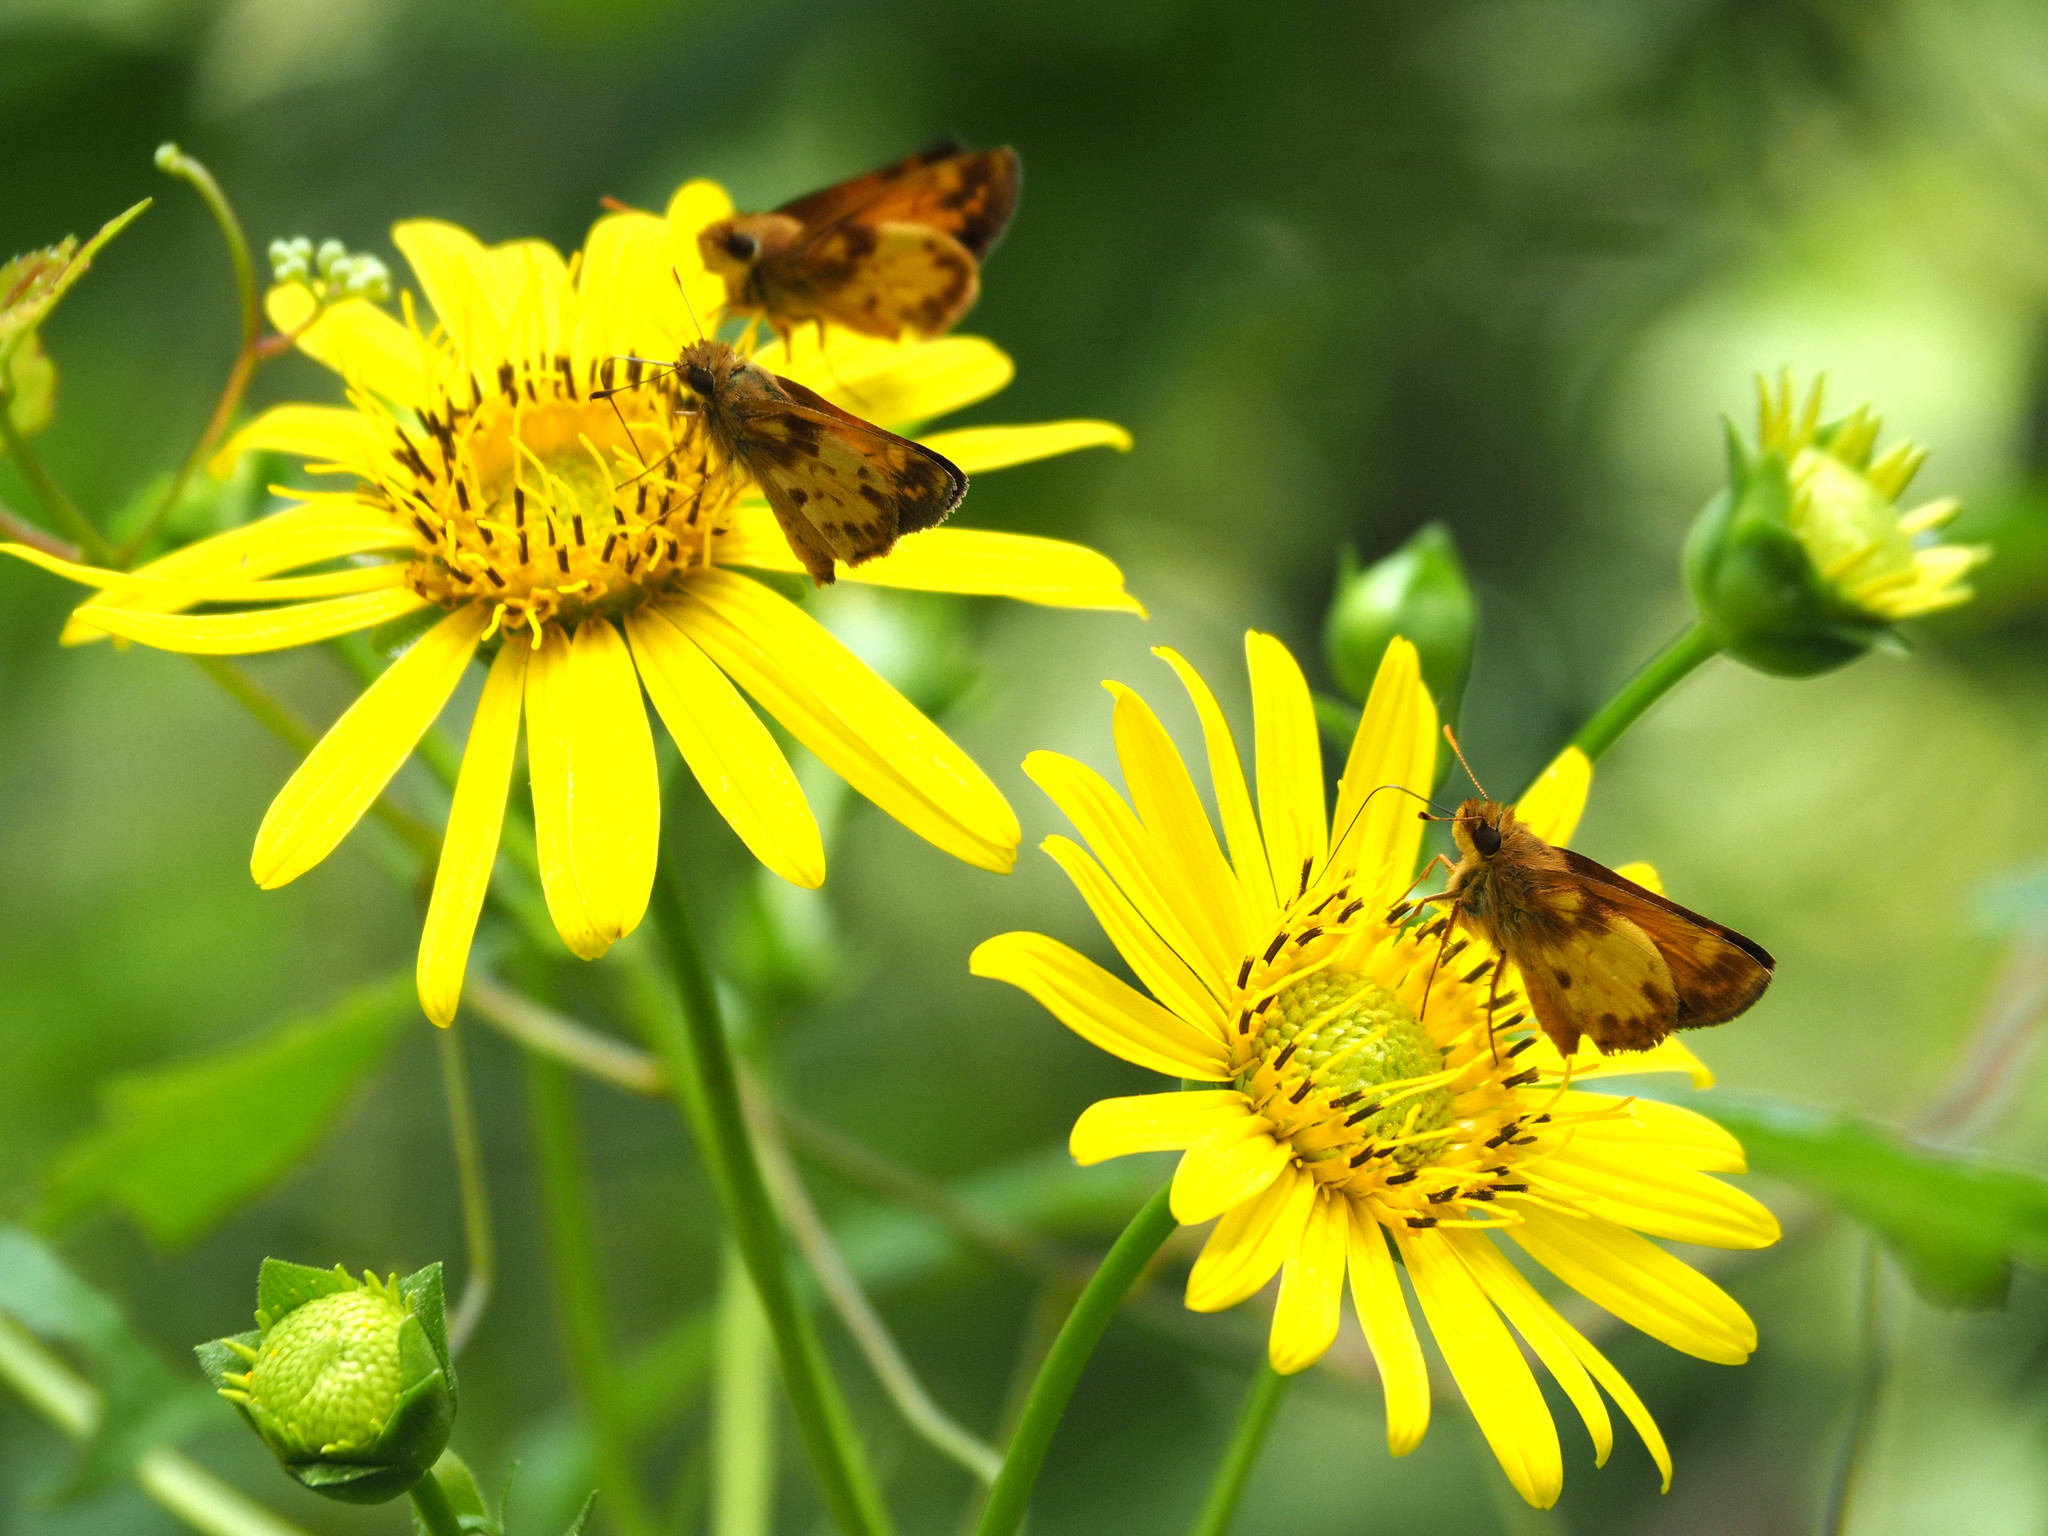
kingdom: Animalia
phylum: Arthropoda
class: Insecta
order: Lepidoptera
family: Hesperiidae
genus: Lon
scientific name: Lon zabulon
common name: Zabulon skipper
